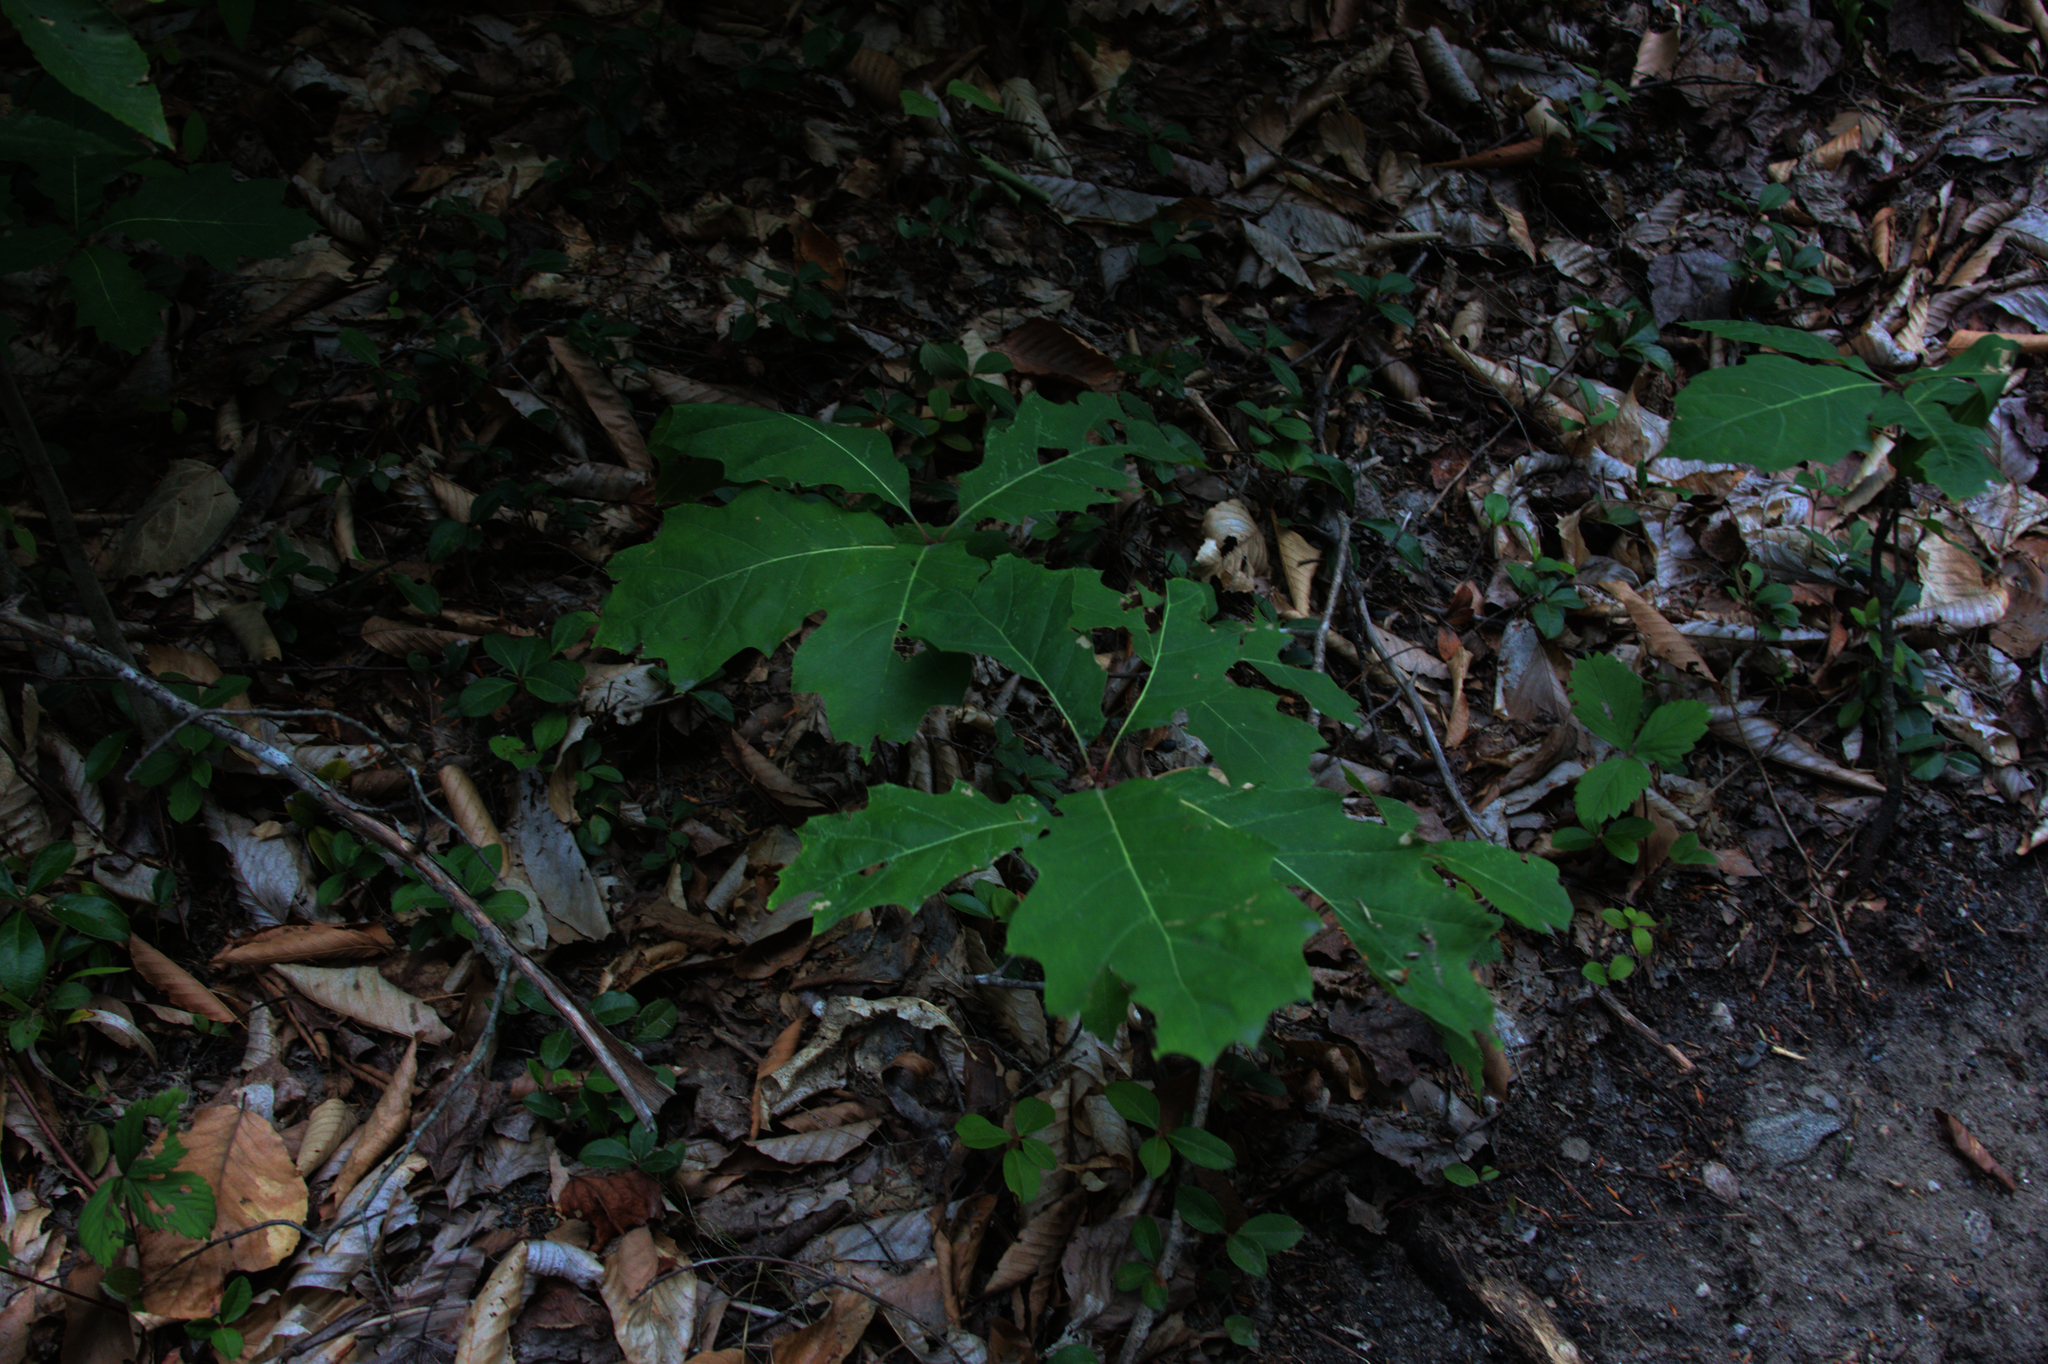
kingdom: Plantae
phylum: Tracheophyta
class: Magnoliopsida
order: Fagales
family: Fagaceae
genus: Quercus
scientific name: Quercus rubra
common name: Red oak
